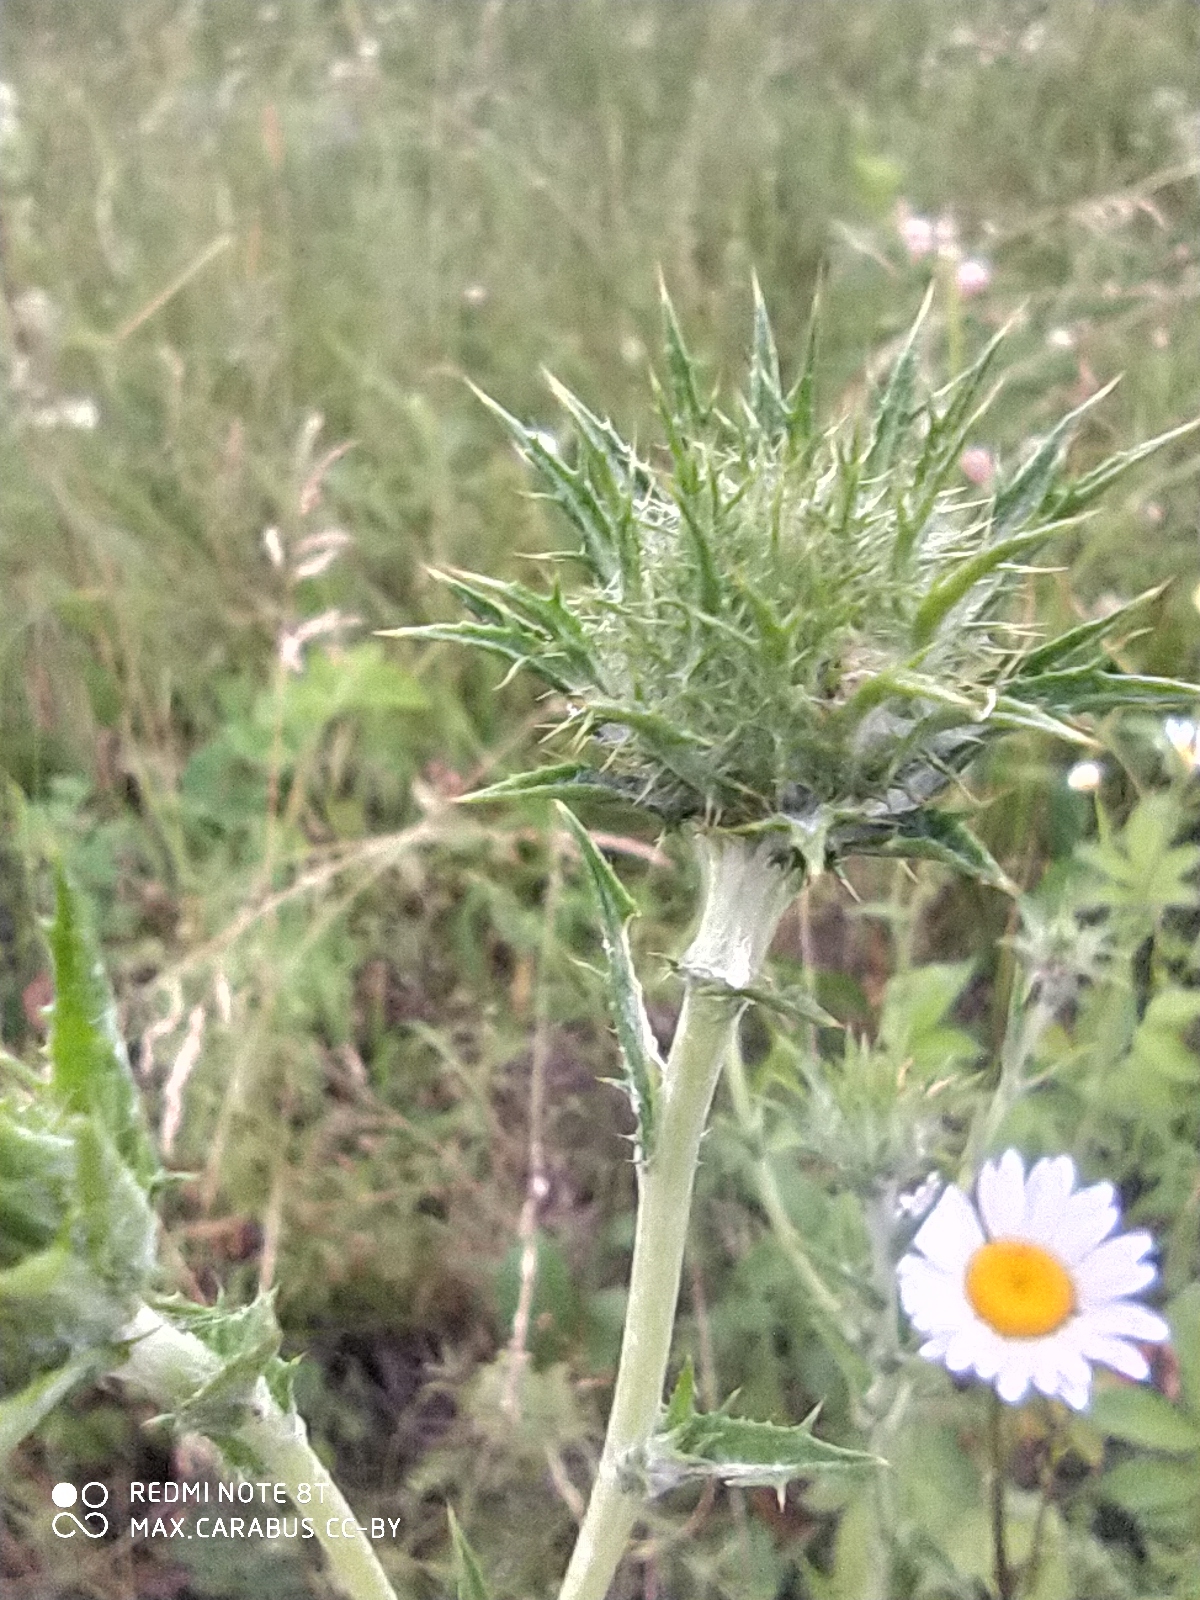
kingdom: Plantae
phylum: Tracheophyta
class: Magnoliopsida
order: Asterales
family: Asteraceae
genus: Carlina
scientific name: Carlina biebersteinii
